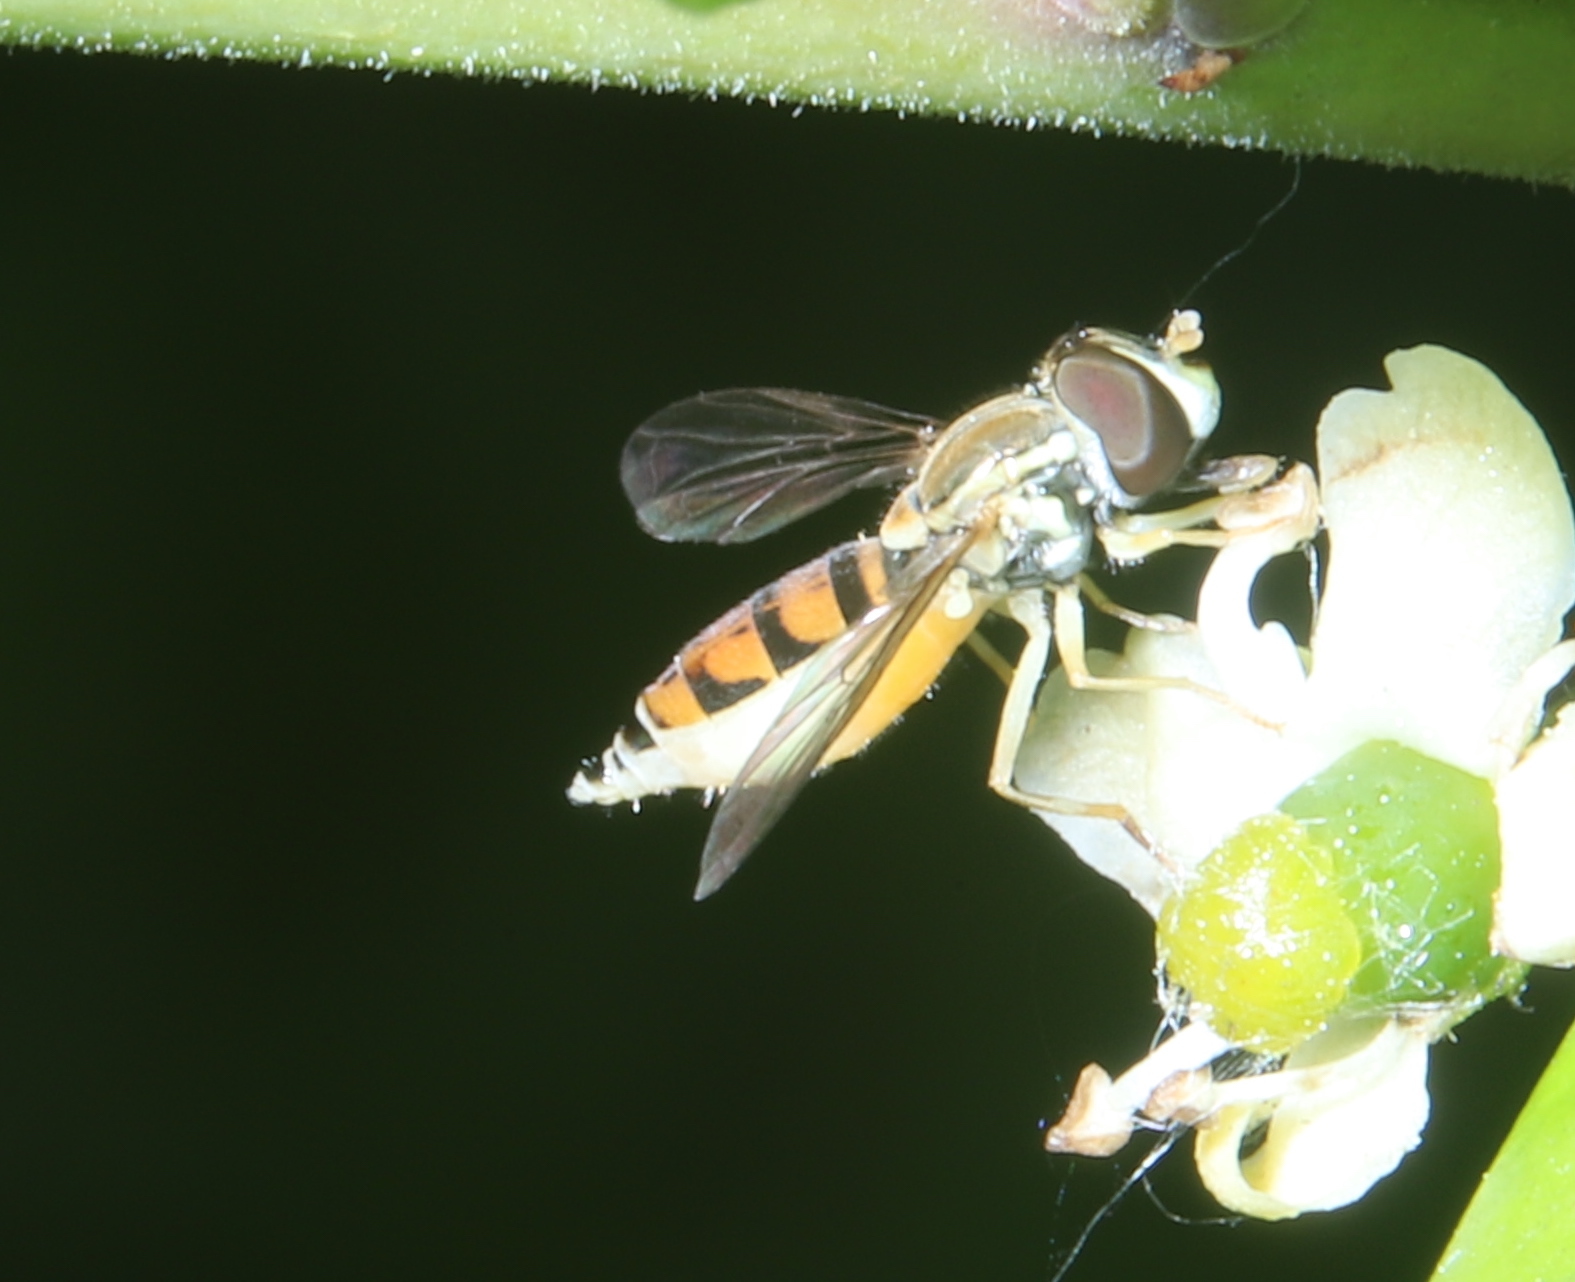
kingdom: Animalia
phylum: Arthropoda
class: Insecta
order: Diptera
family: Syrphidae
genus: Toxomerus
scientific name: Toxomerus marginatus
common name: Syrphid fly
